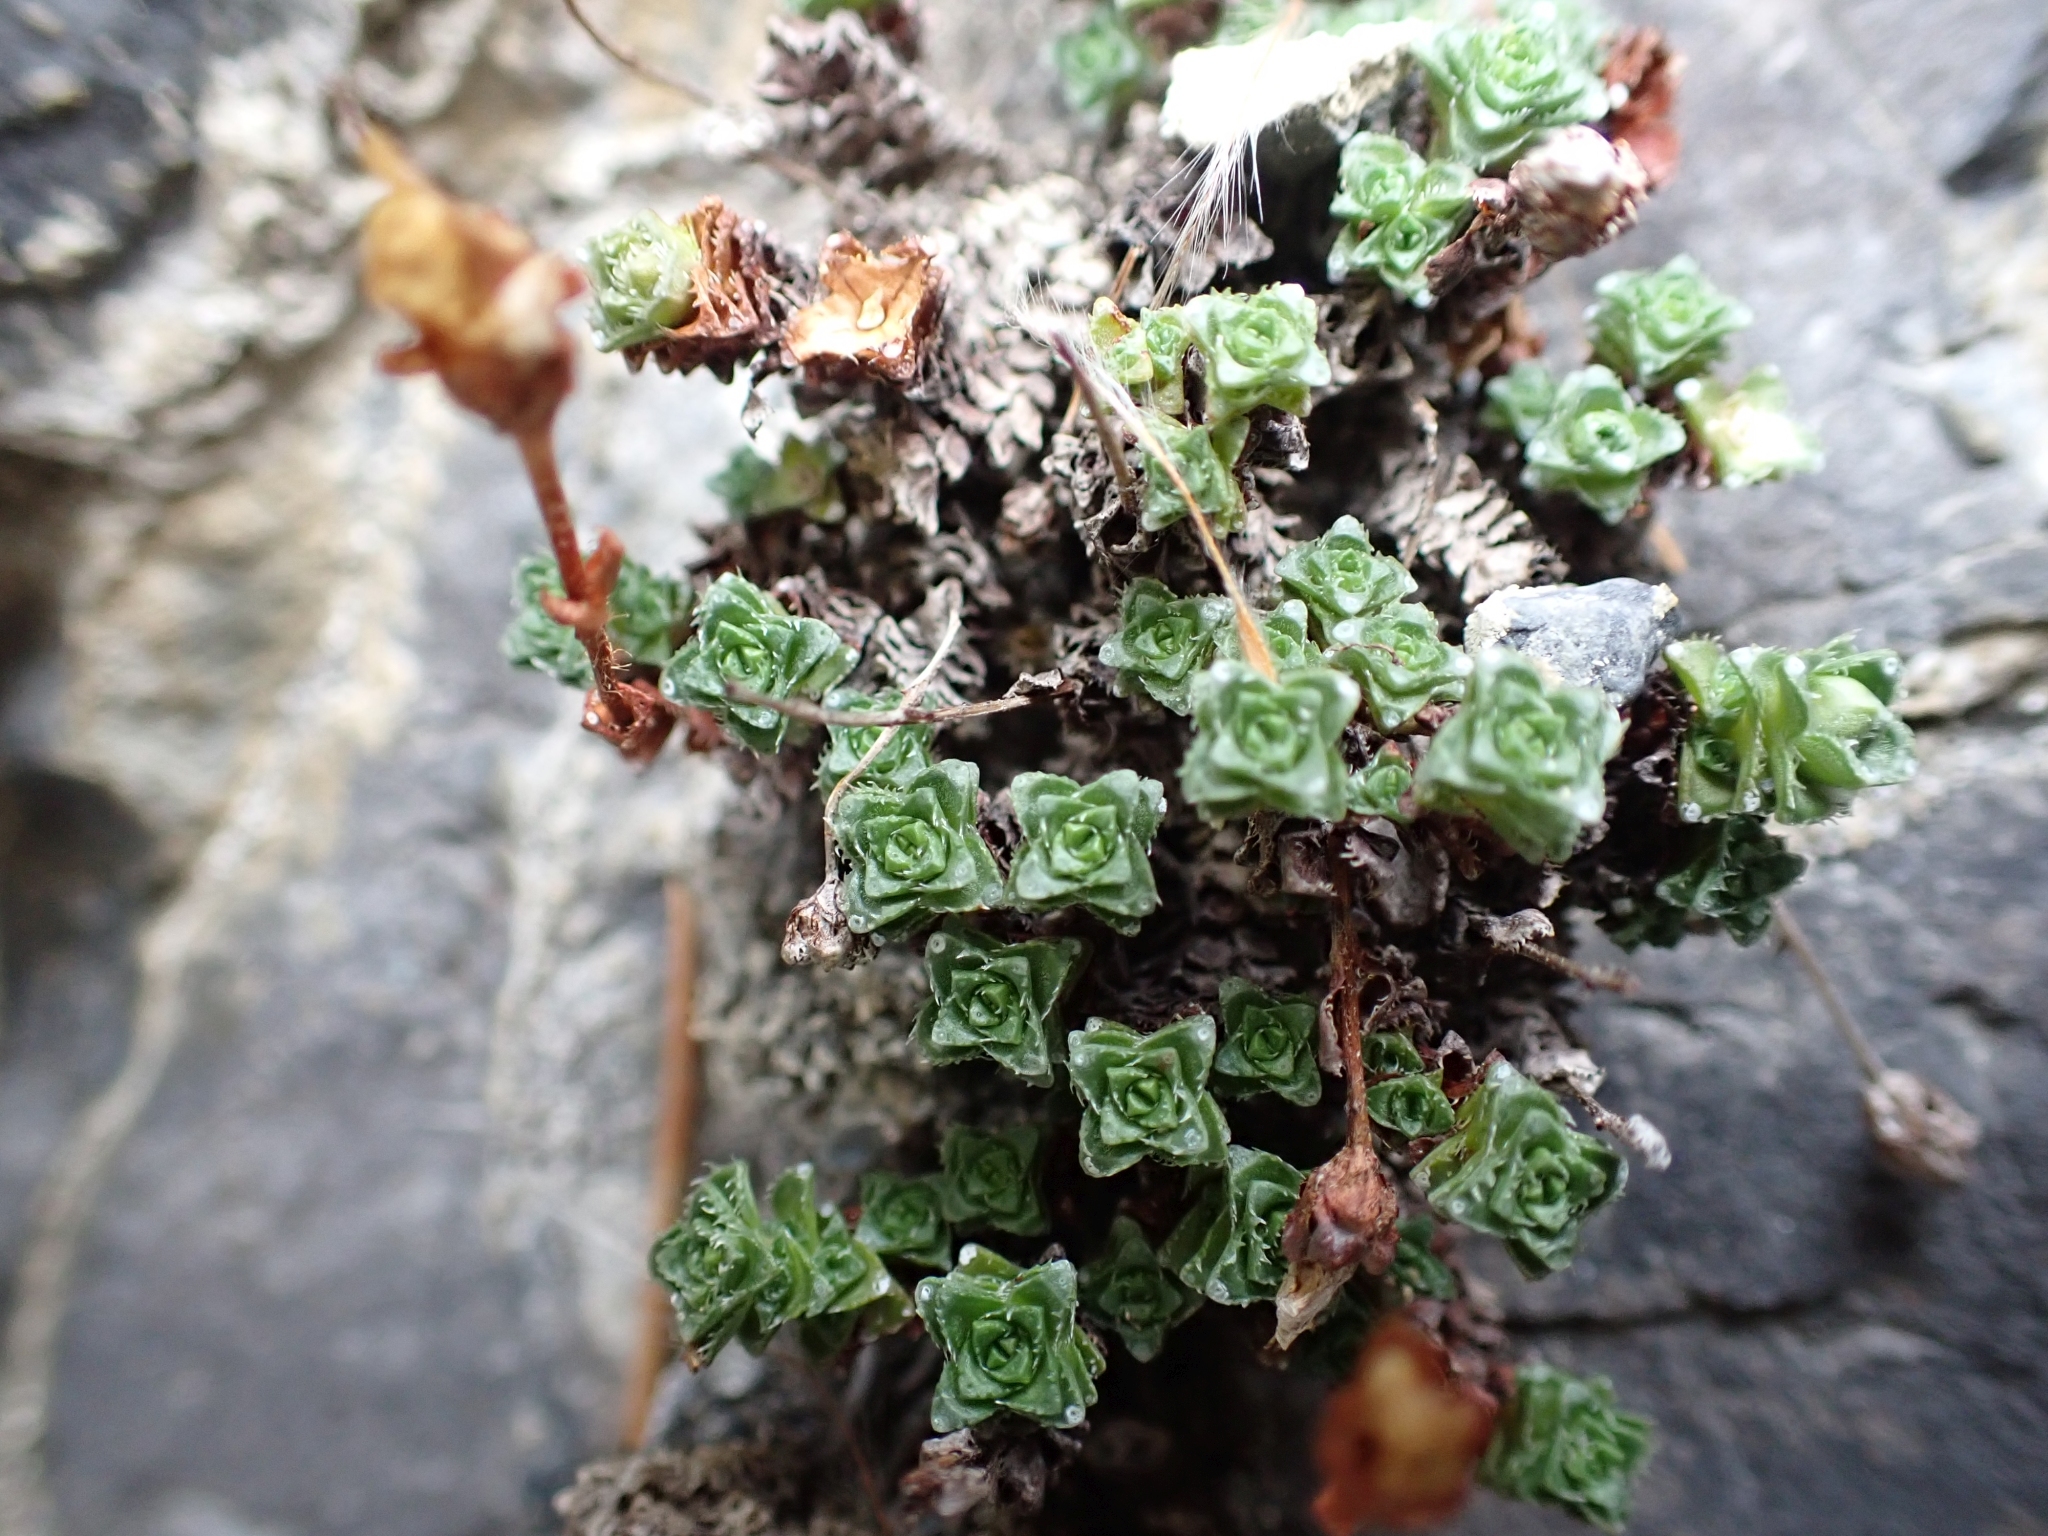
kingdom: Plantae
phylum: Tracheophyta
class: Magnoliopsida
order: Saxifragales
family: Saxifragaceae
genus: Saxifraga
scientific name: Saxifraga oppositifolia
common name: Purple saxifrage
